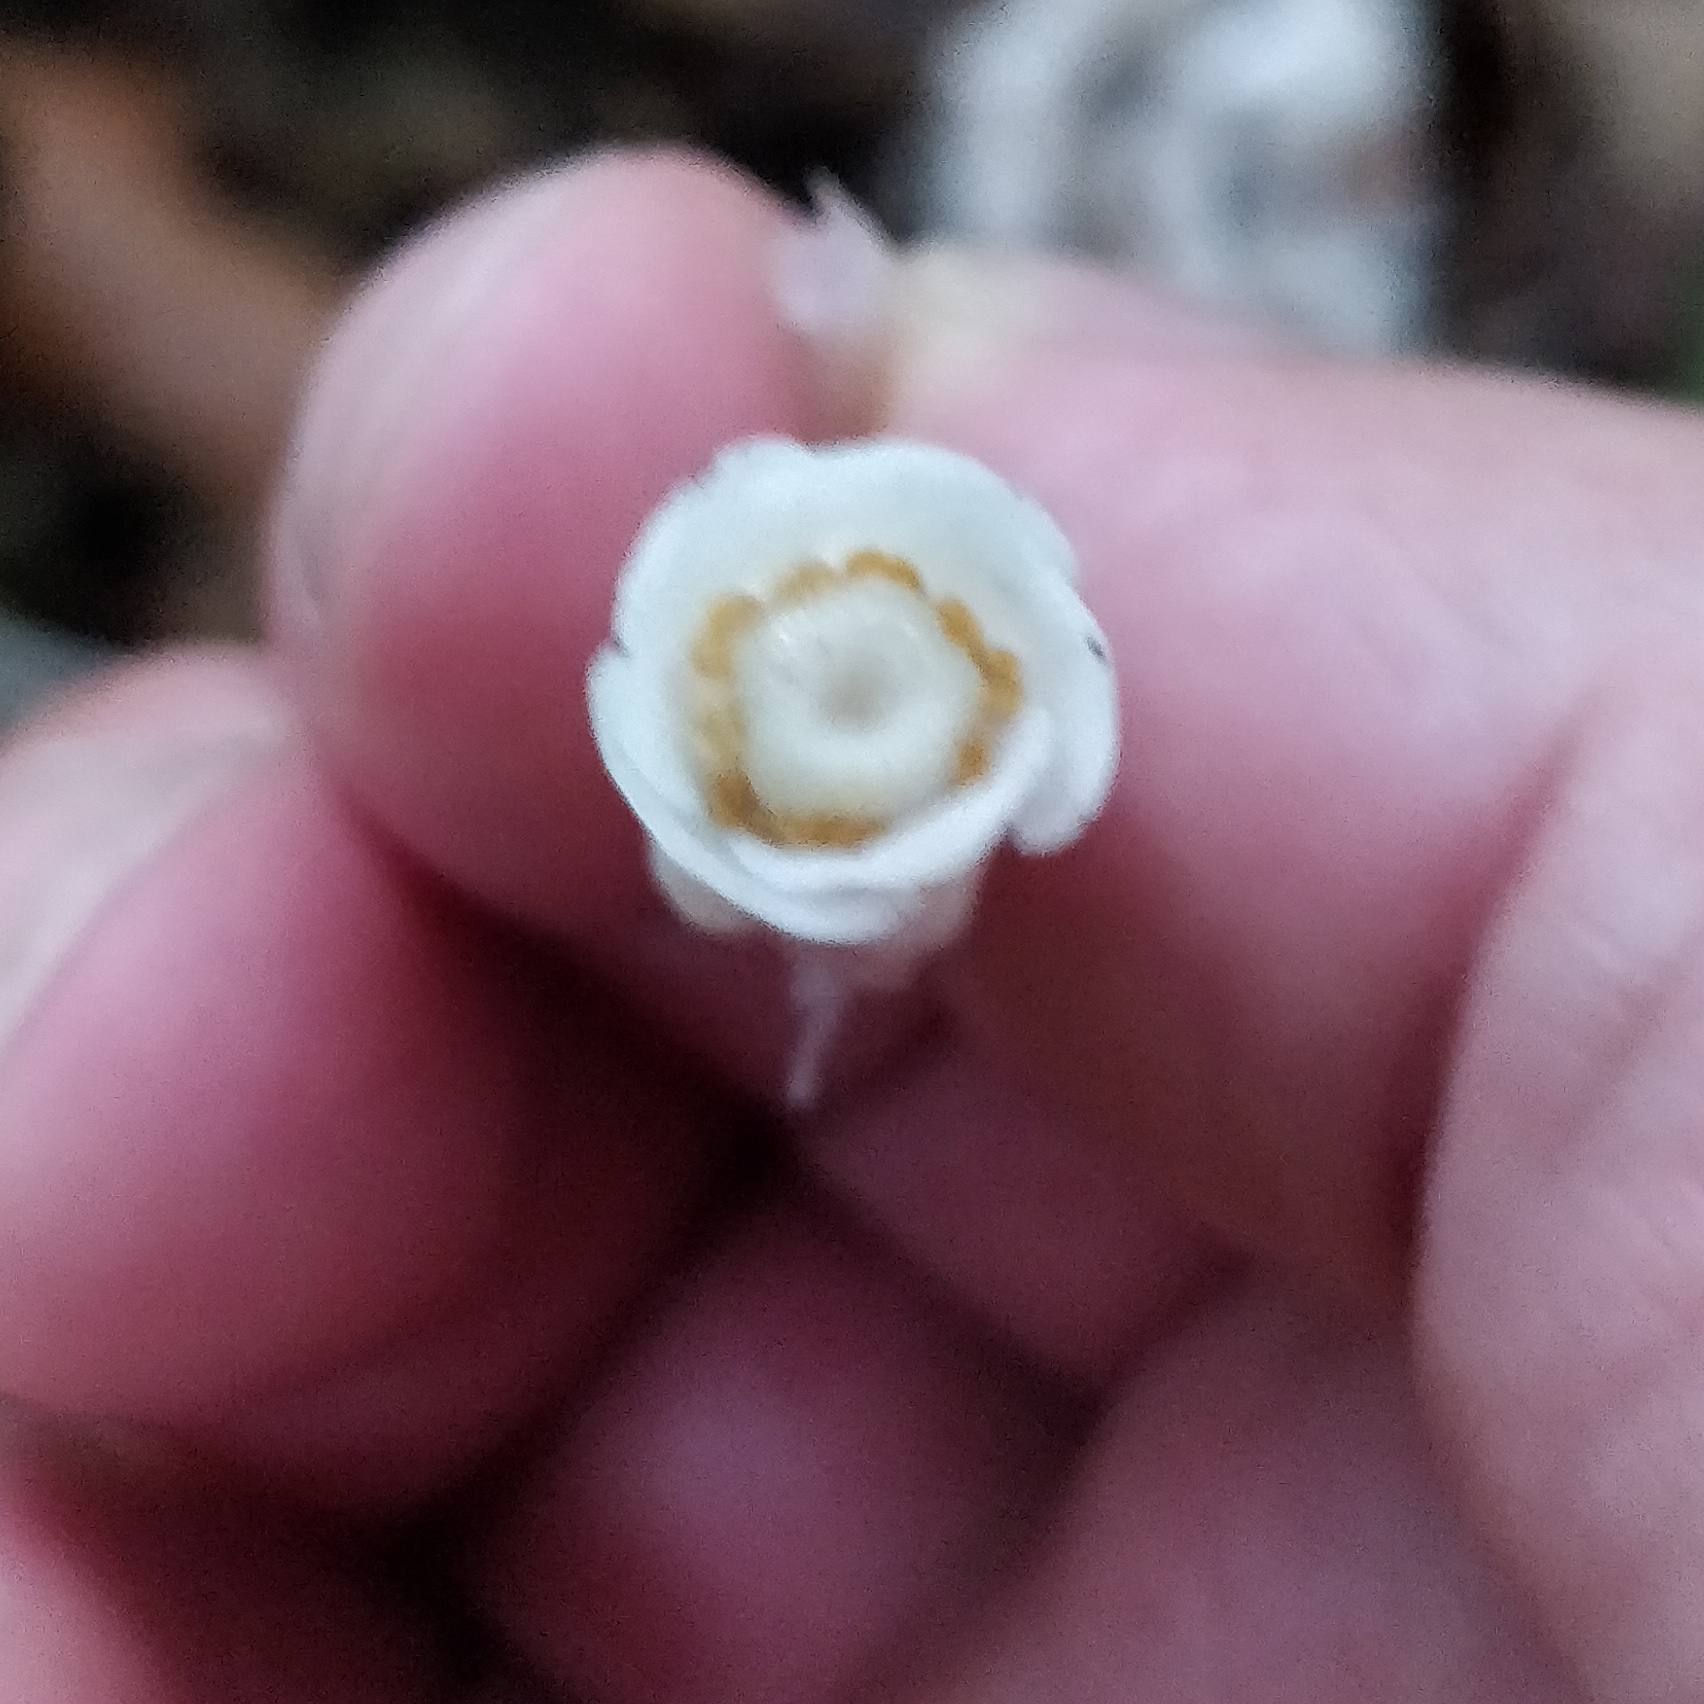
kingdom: Plantae
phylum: Tracheophyta
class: Magnoliopsida
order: Ericales
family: Ericaceae
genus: Monotropa
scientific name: Monotropa uniflora
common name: Convulsion root
